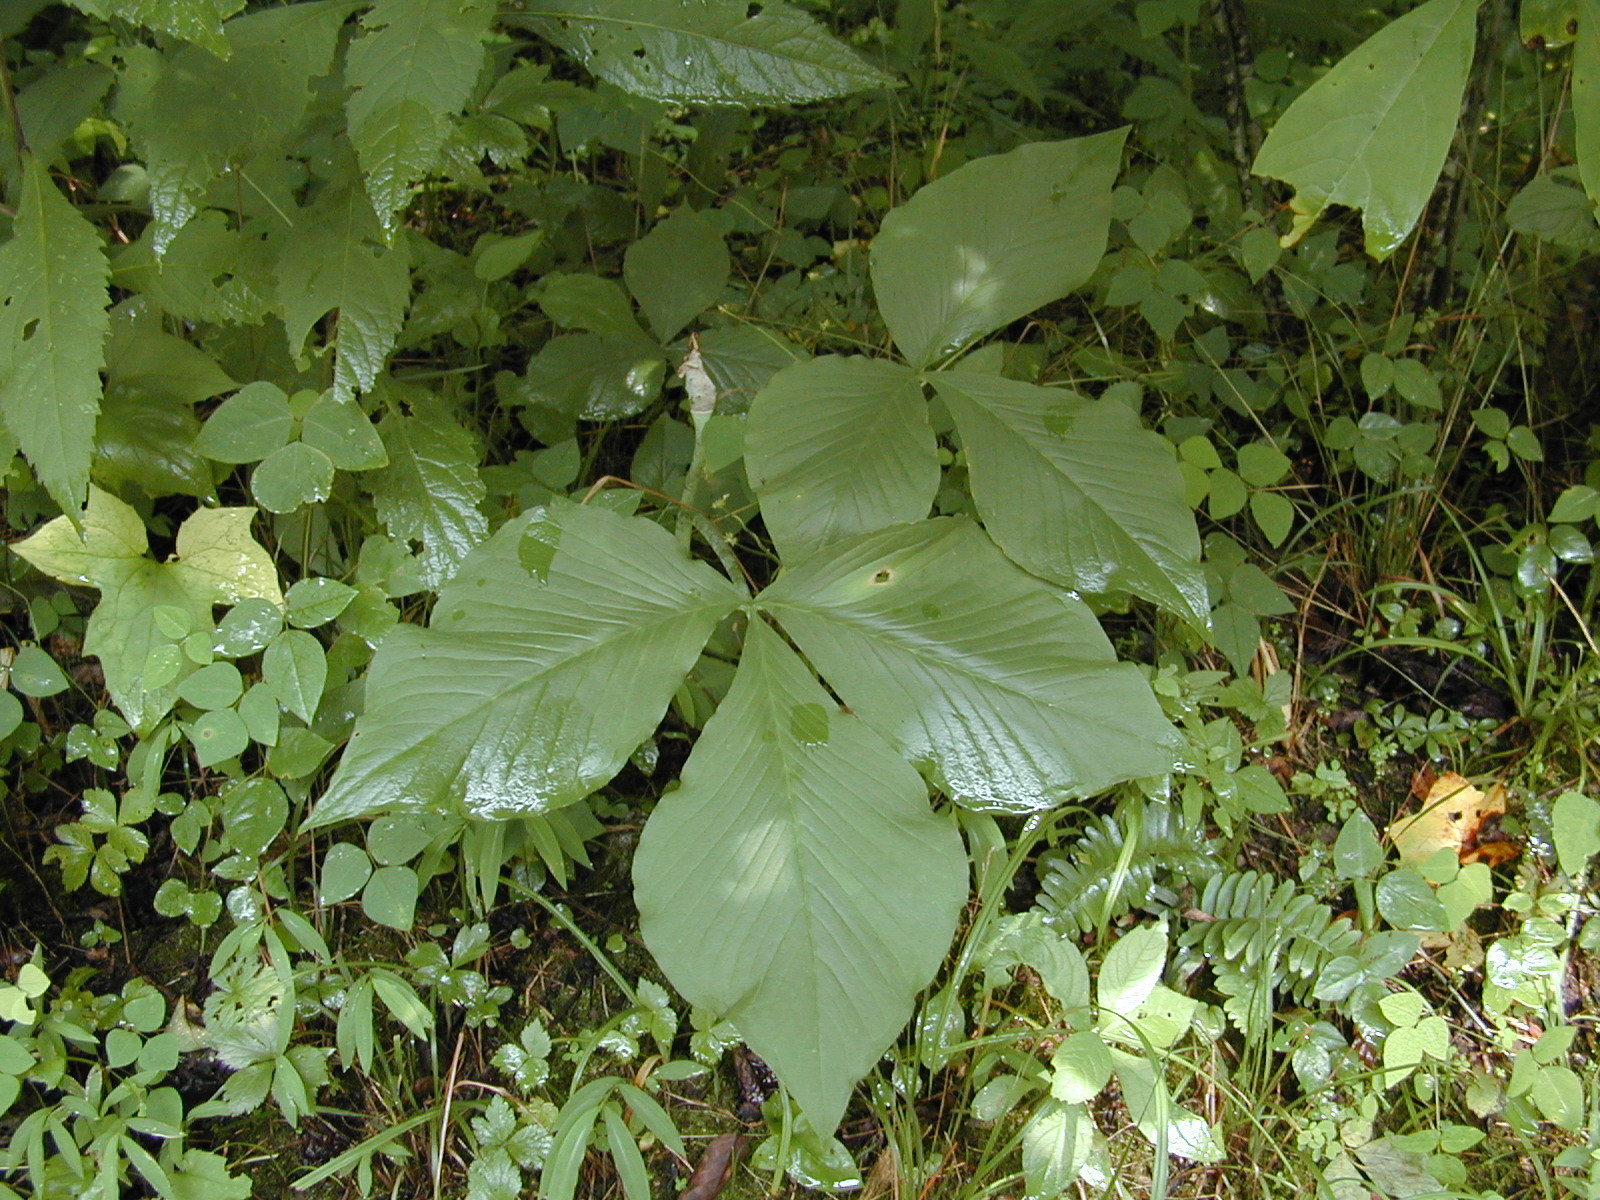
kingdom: Plantae
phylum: Tracheophyta
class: Liliopsida
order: Alismatales
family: Araceae
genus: Arisaema
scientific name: Arisaema triphyllum
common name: Jack-in-the-pulpit
